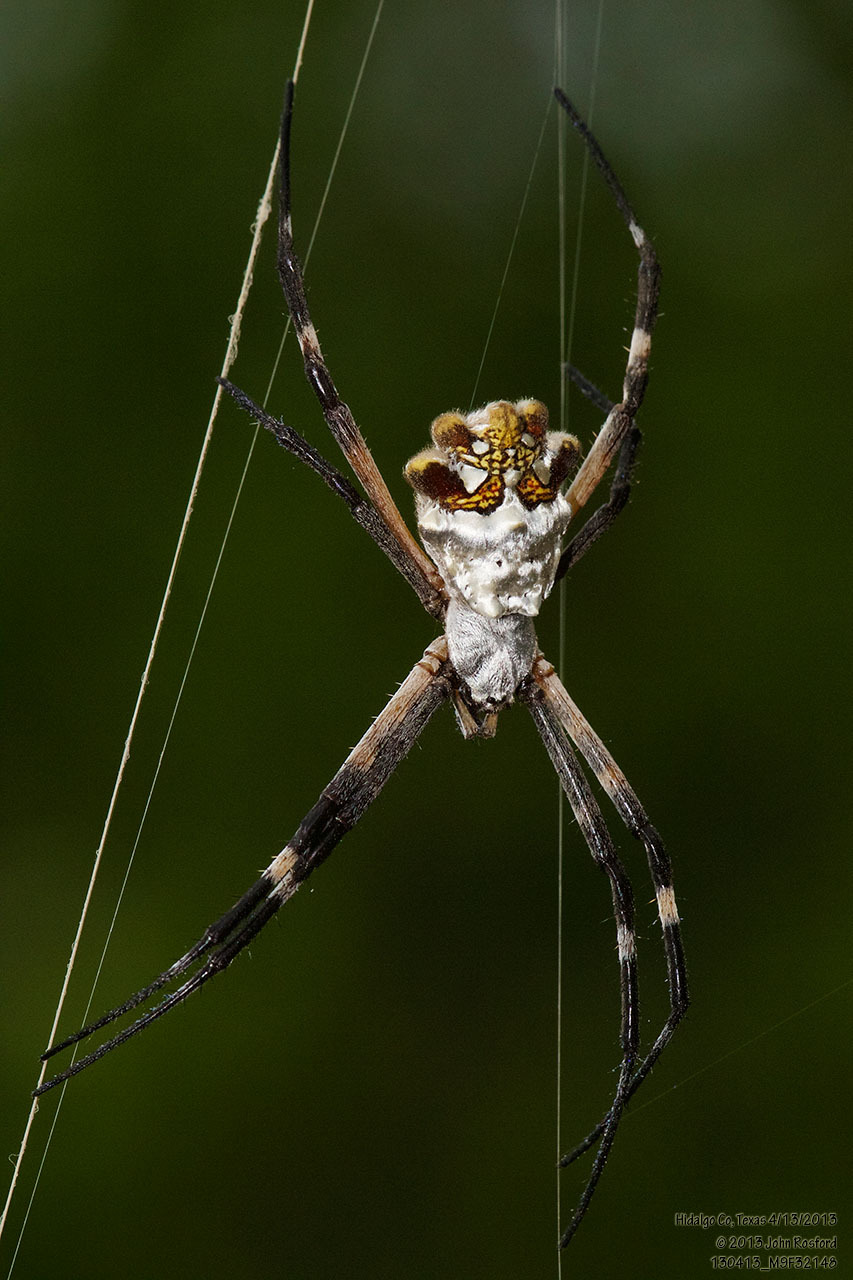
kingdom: Animalia
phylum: Arthropoda
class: Arachnida
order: Araneae
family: Araneidae
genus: Argiope
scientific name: Argiope argentata
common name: Orb weavers
